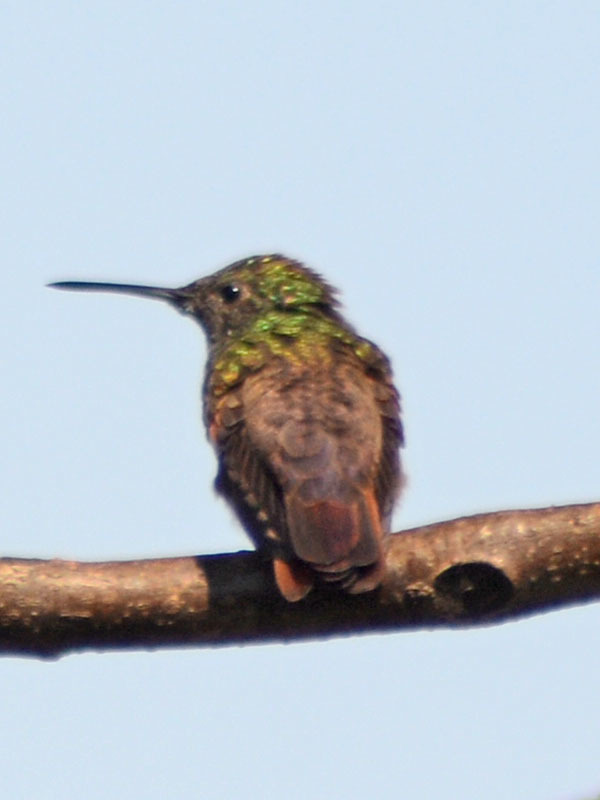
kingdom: Animalia
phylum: Chordata
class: Aves
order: Apodiformes
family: Trochilidae
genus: Saucerottia
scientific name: Saucerottia beryllina
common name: Berylline hummingbird
